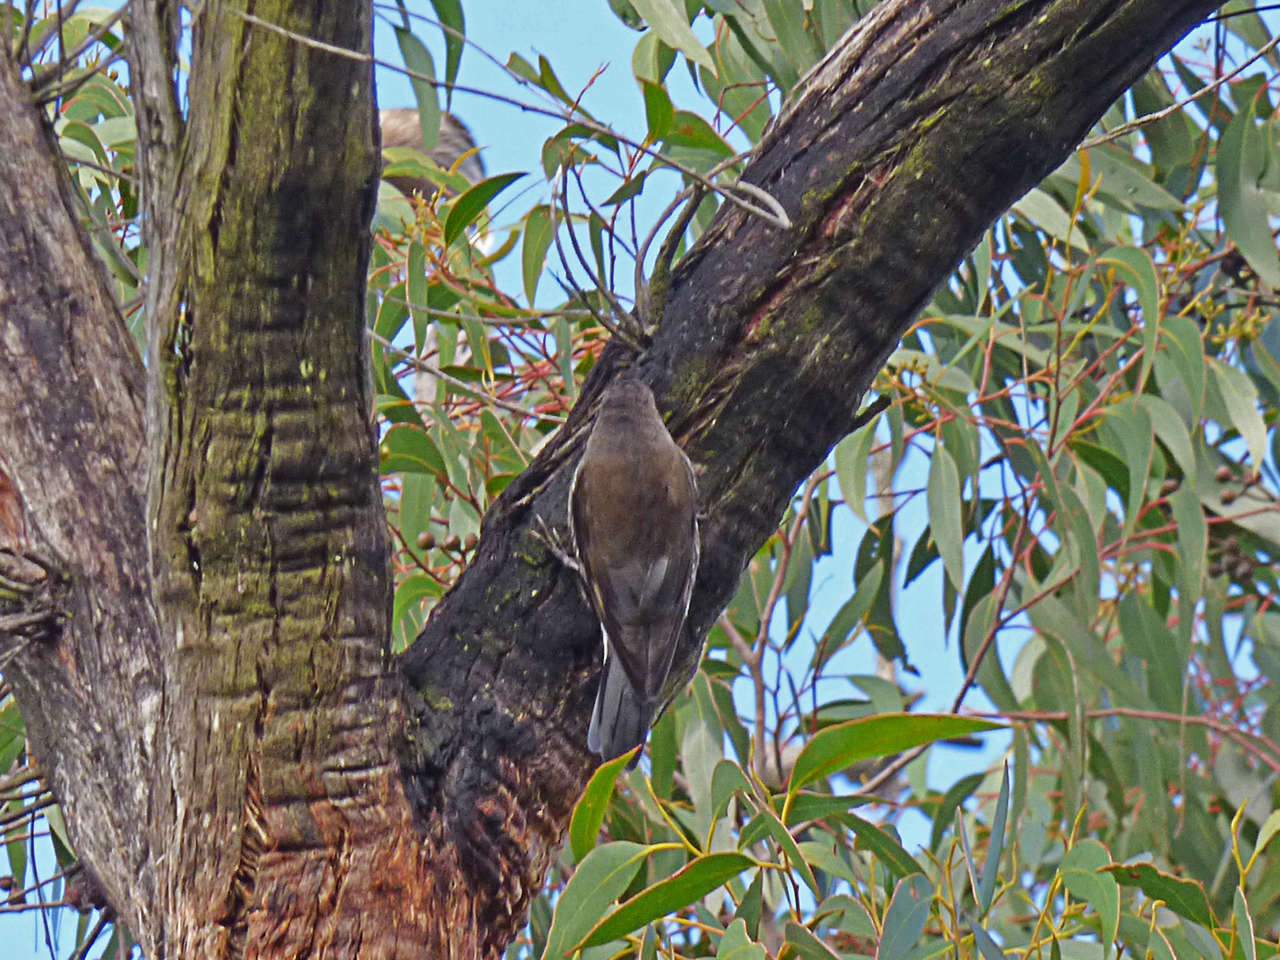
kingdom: Animalia
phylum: Chordata
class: Aves
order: Passeriformes
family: Climacteridae
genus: Cormobates
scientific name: Cormobates leucophaea
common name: White-throated treecreeper
